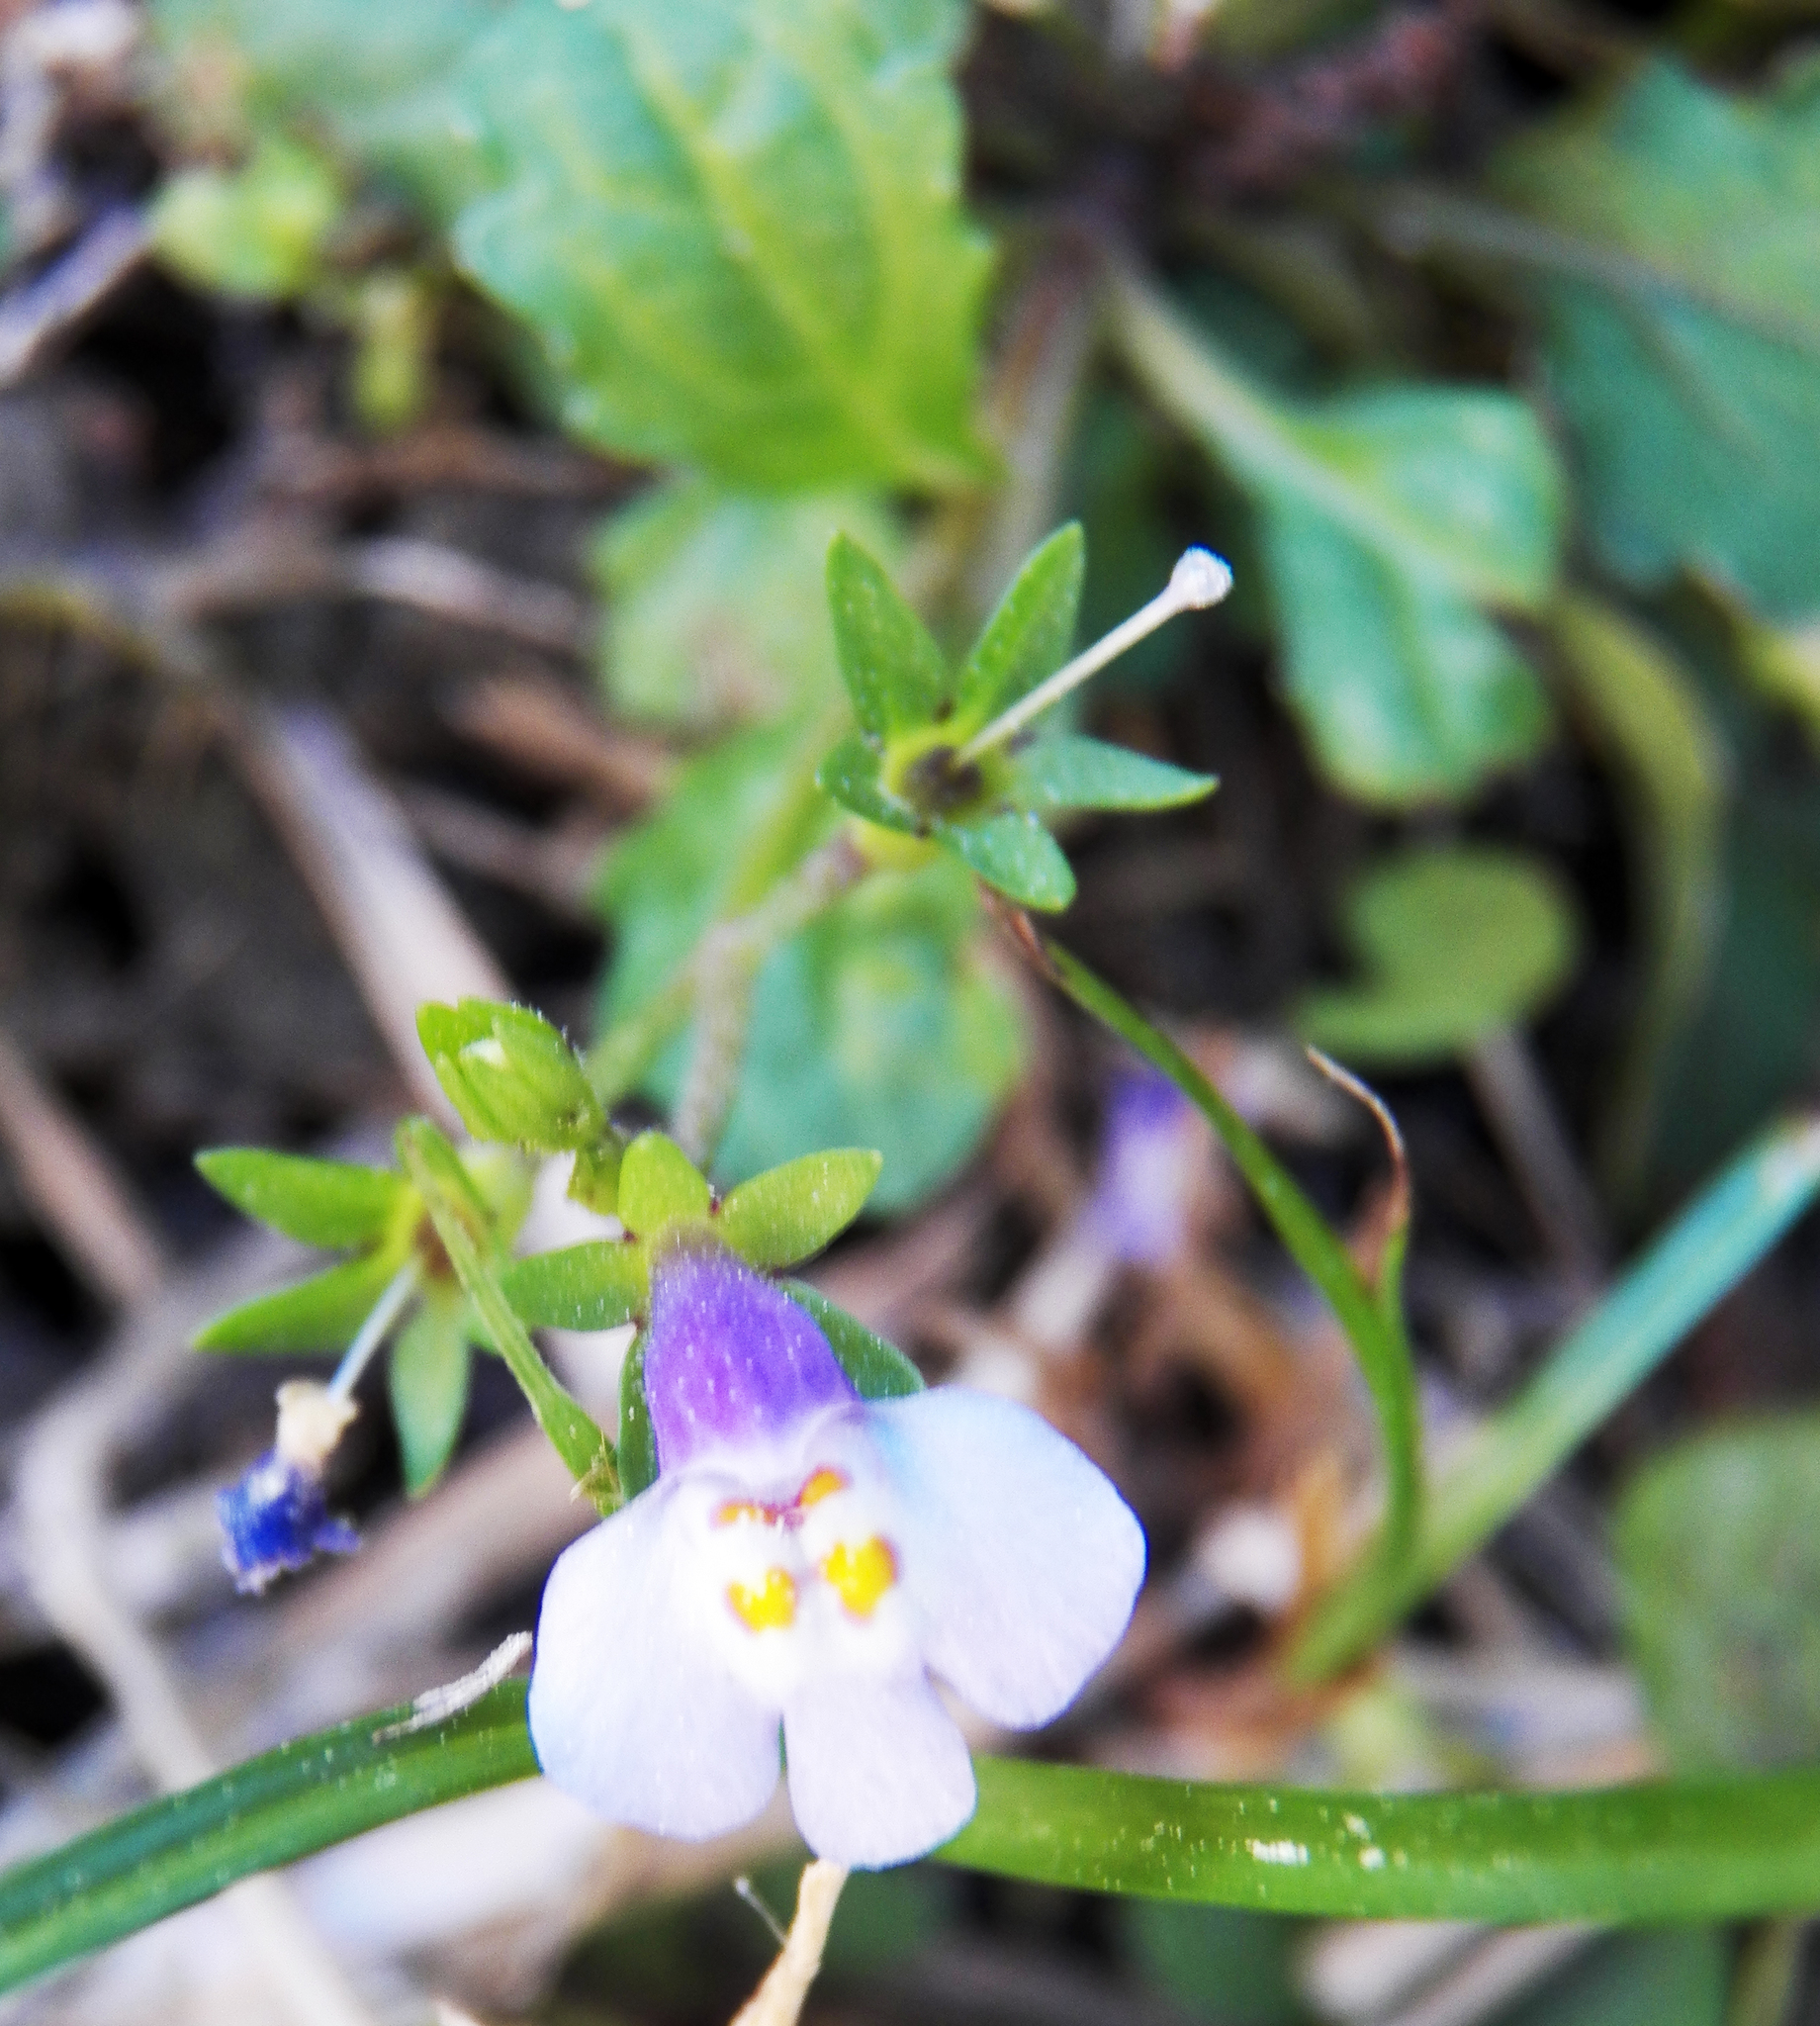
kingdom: Plantae
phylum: Tracheophyta
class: Magnoliopsida
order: Lamiales
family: Mazaceae
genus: Mazus
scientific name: Mazus pumilus
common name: Japanese mazus
